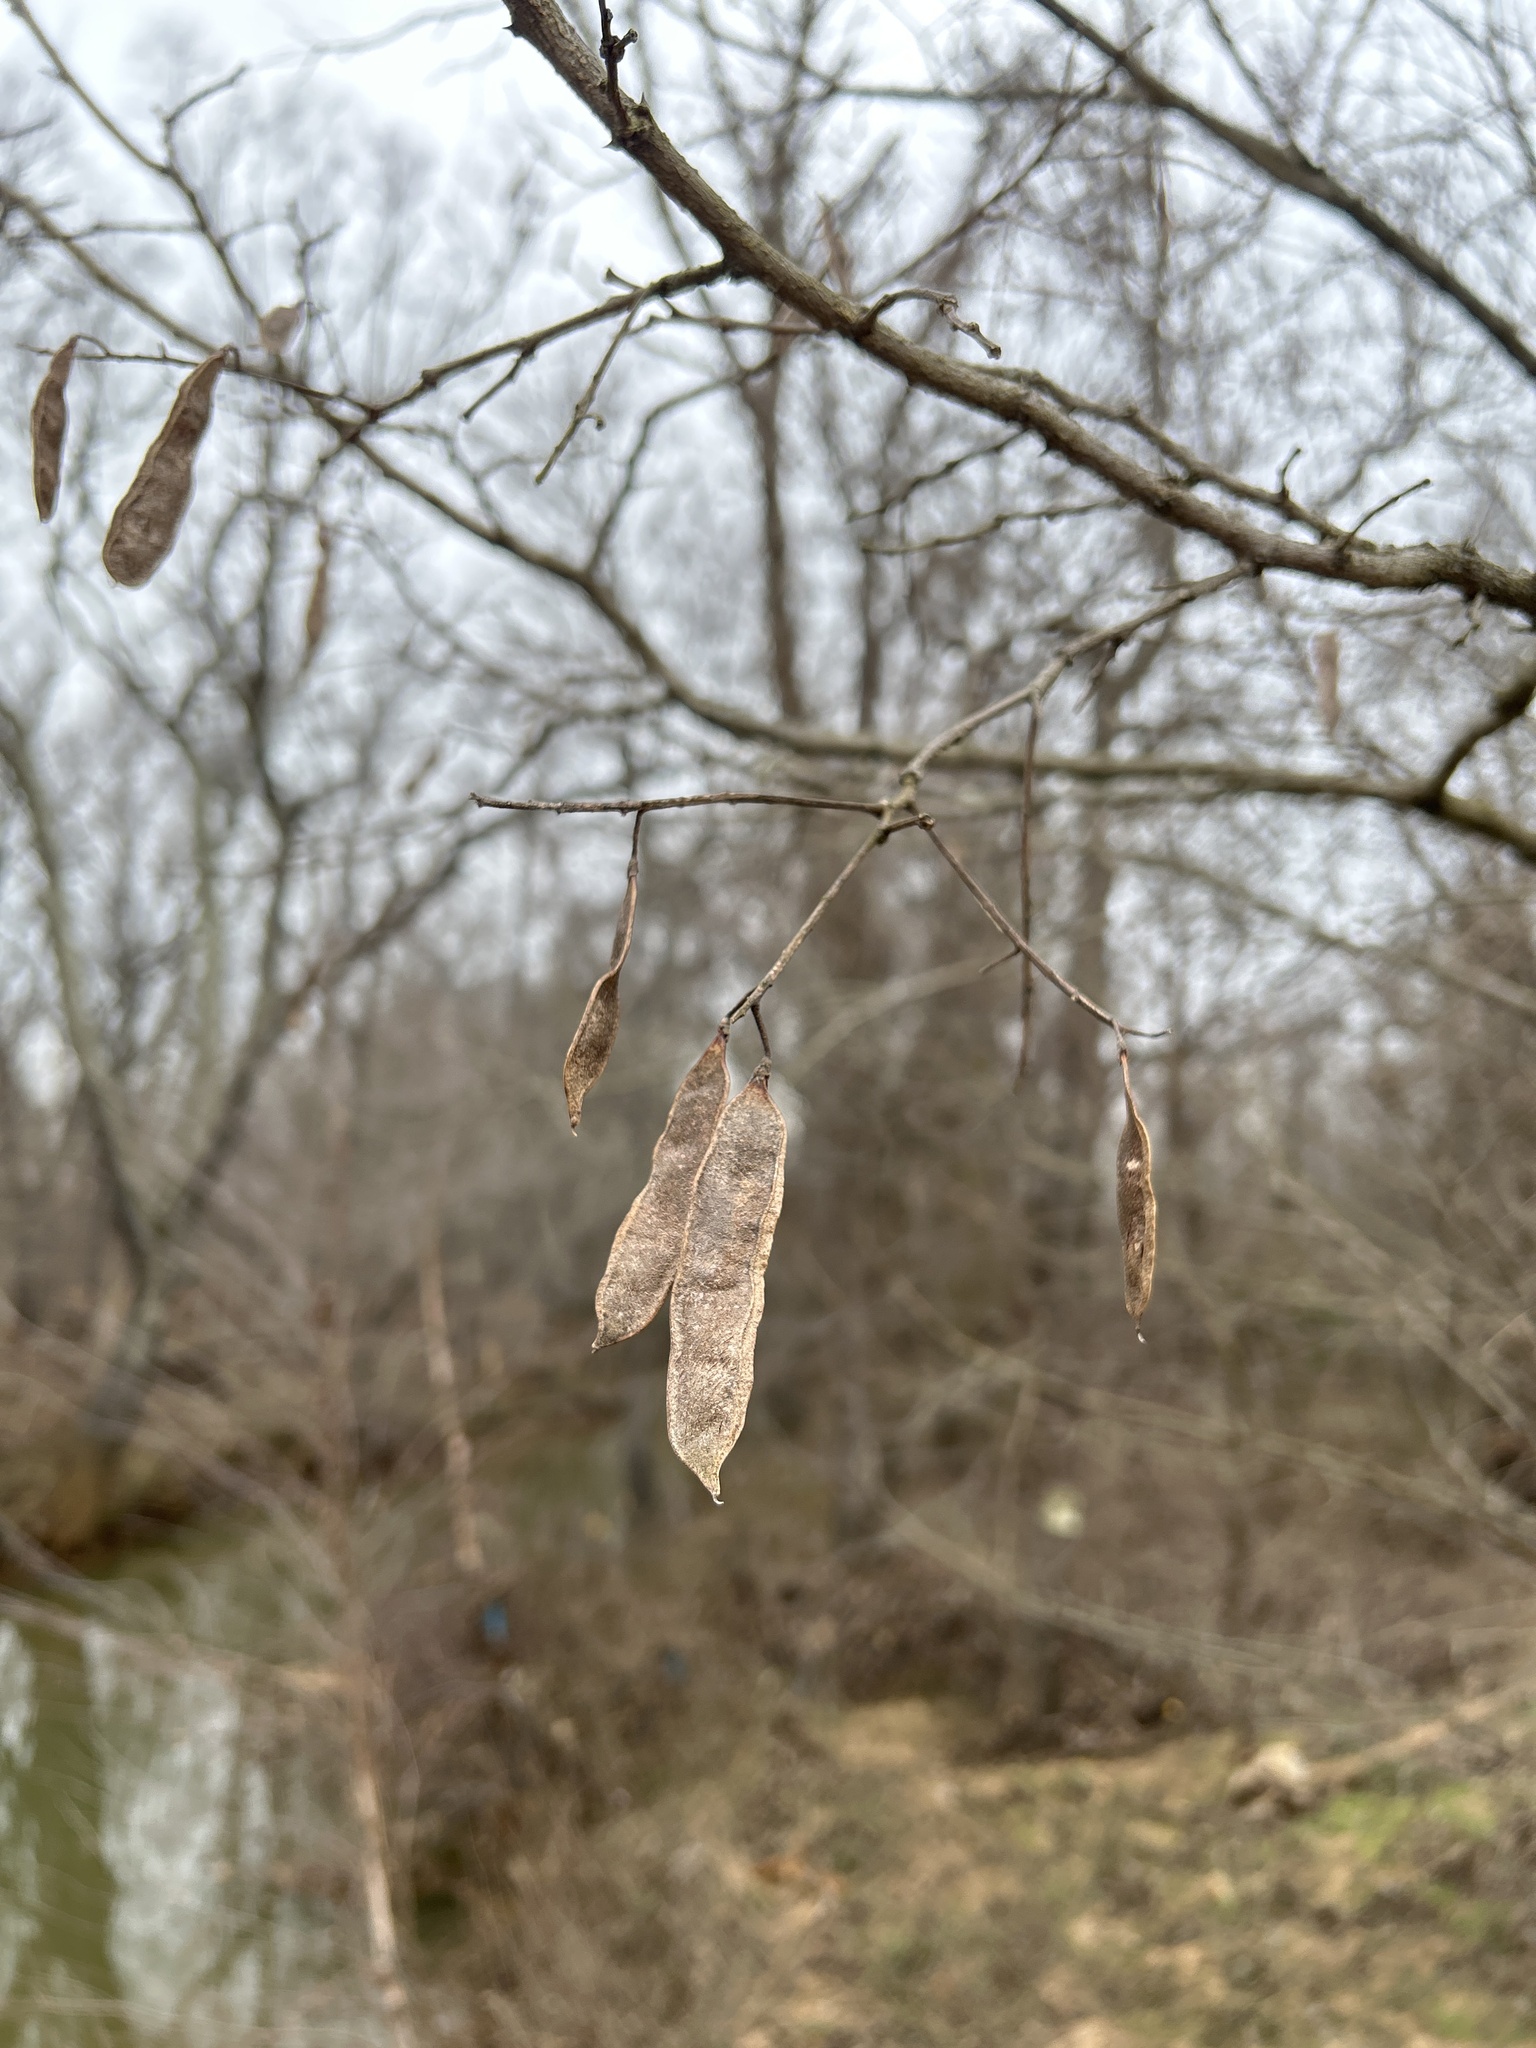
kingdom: Plantae
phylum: Tracheophyta
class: Magnoliopsida
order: Fabales
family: Fabaceae
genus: Robinia
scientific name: Robinia pseudoacacia
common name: Black locust
